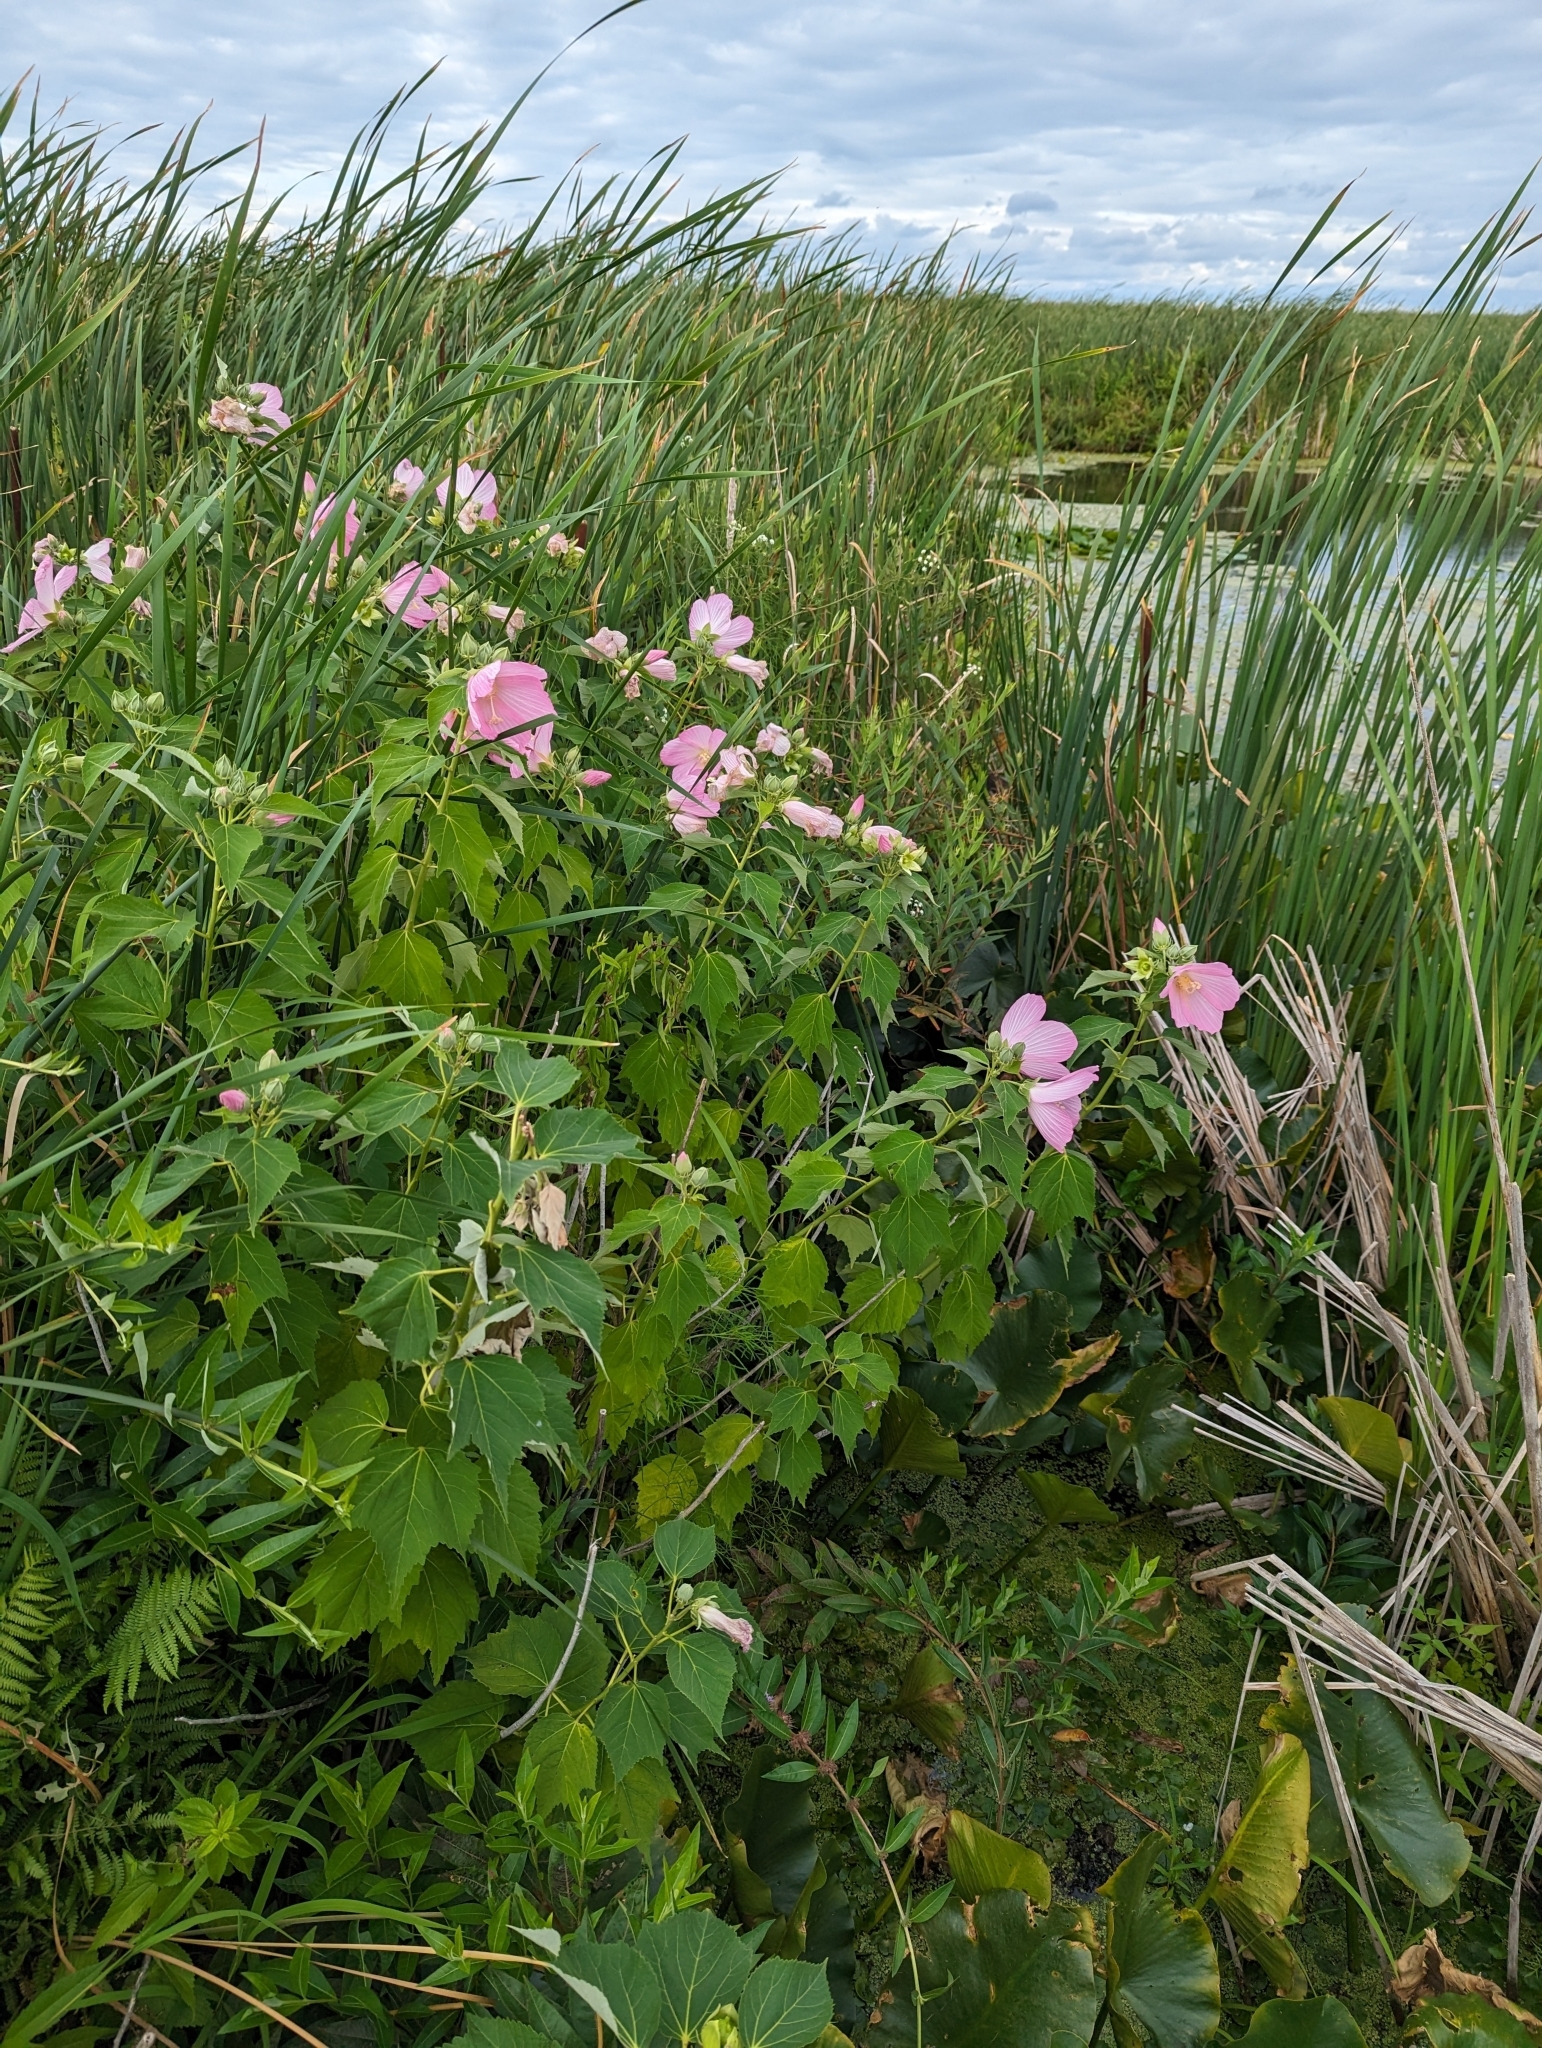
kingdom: Plantae
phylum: Tracheophyta
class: Magnoliopsida
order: Malvales
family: Malvaceae
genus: Hibiscus
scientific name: Hibiscus moscheutos
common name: Common rose-mallow
